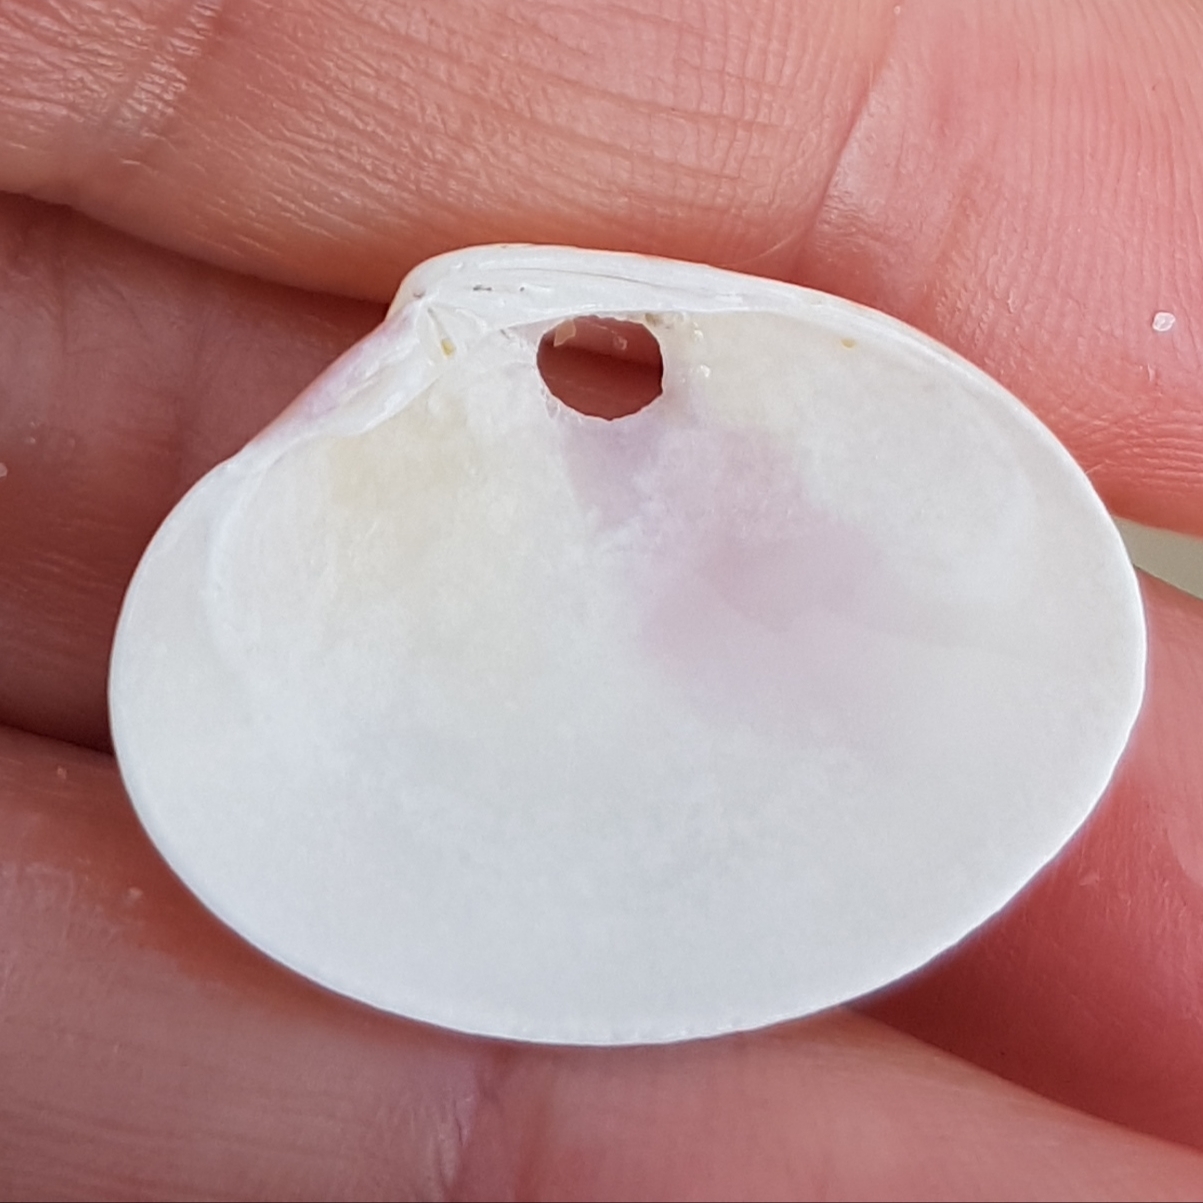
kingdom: Animalia
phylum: Mollusca
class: Bivalvia
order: Venerida
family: Veneridae
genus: Callista
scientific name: Callista chione
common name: Brown venus
